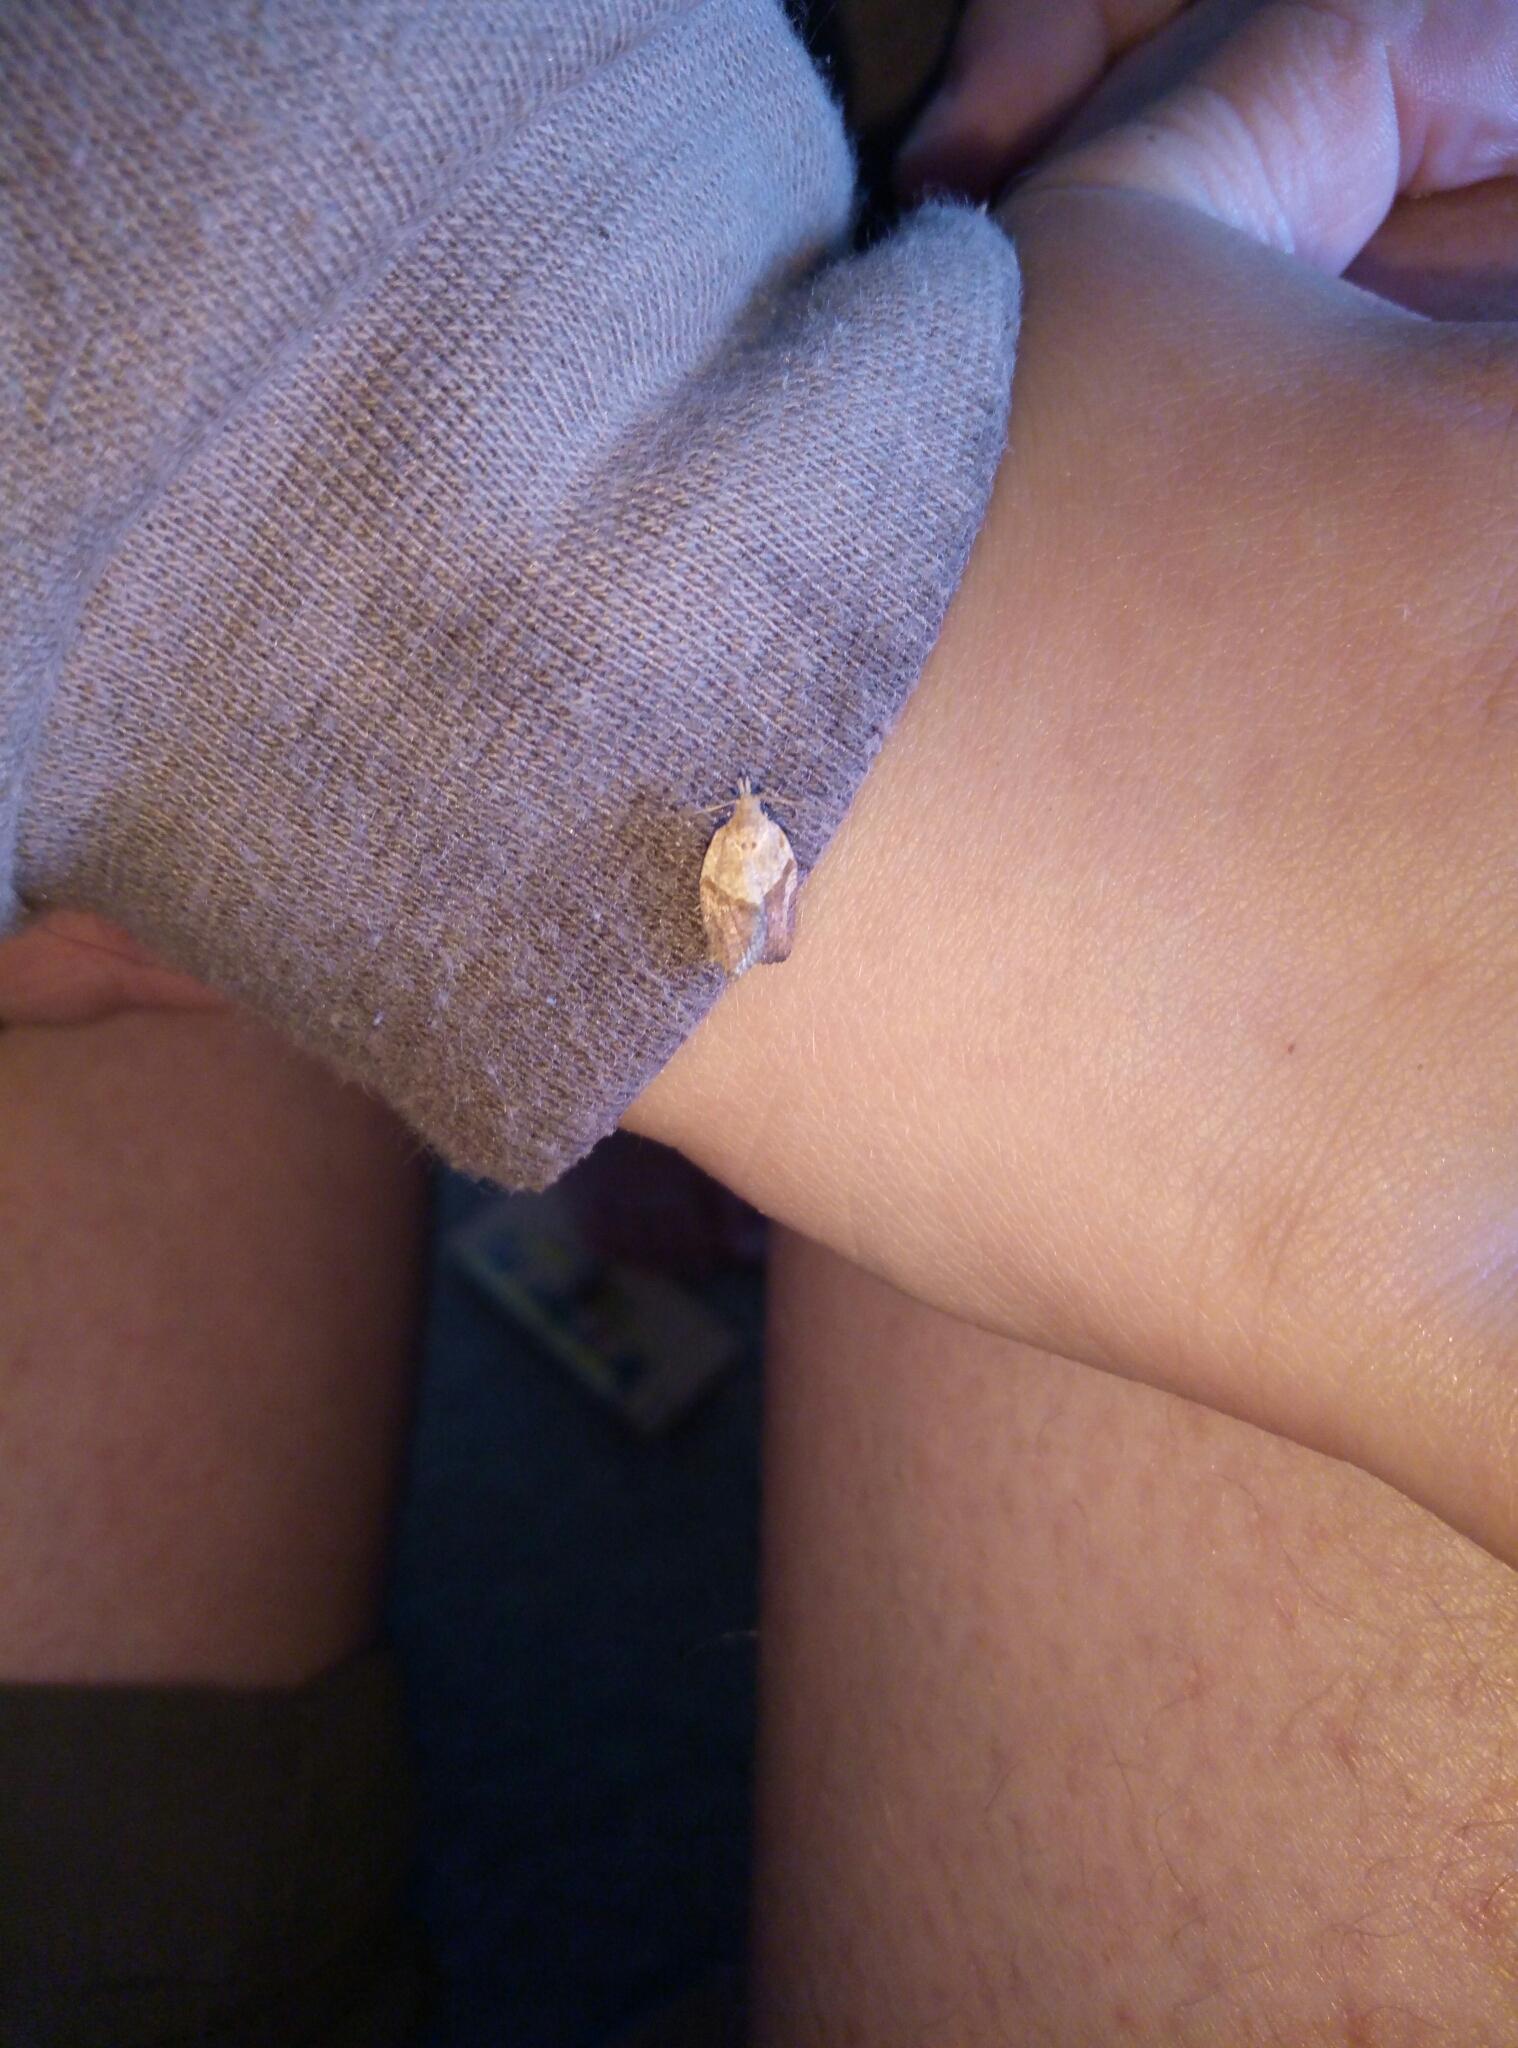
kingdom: Animalia
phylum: Arthropoda
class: Insecta
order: Lepidoptera
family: Tortricidae
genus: Epiphyas
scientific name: Epiphyas postvittana
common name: Light brown apple moth
